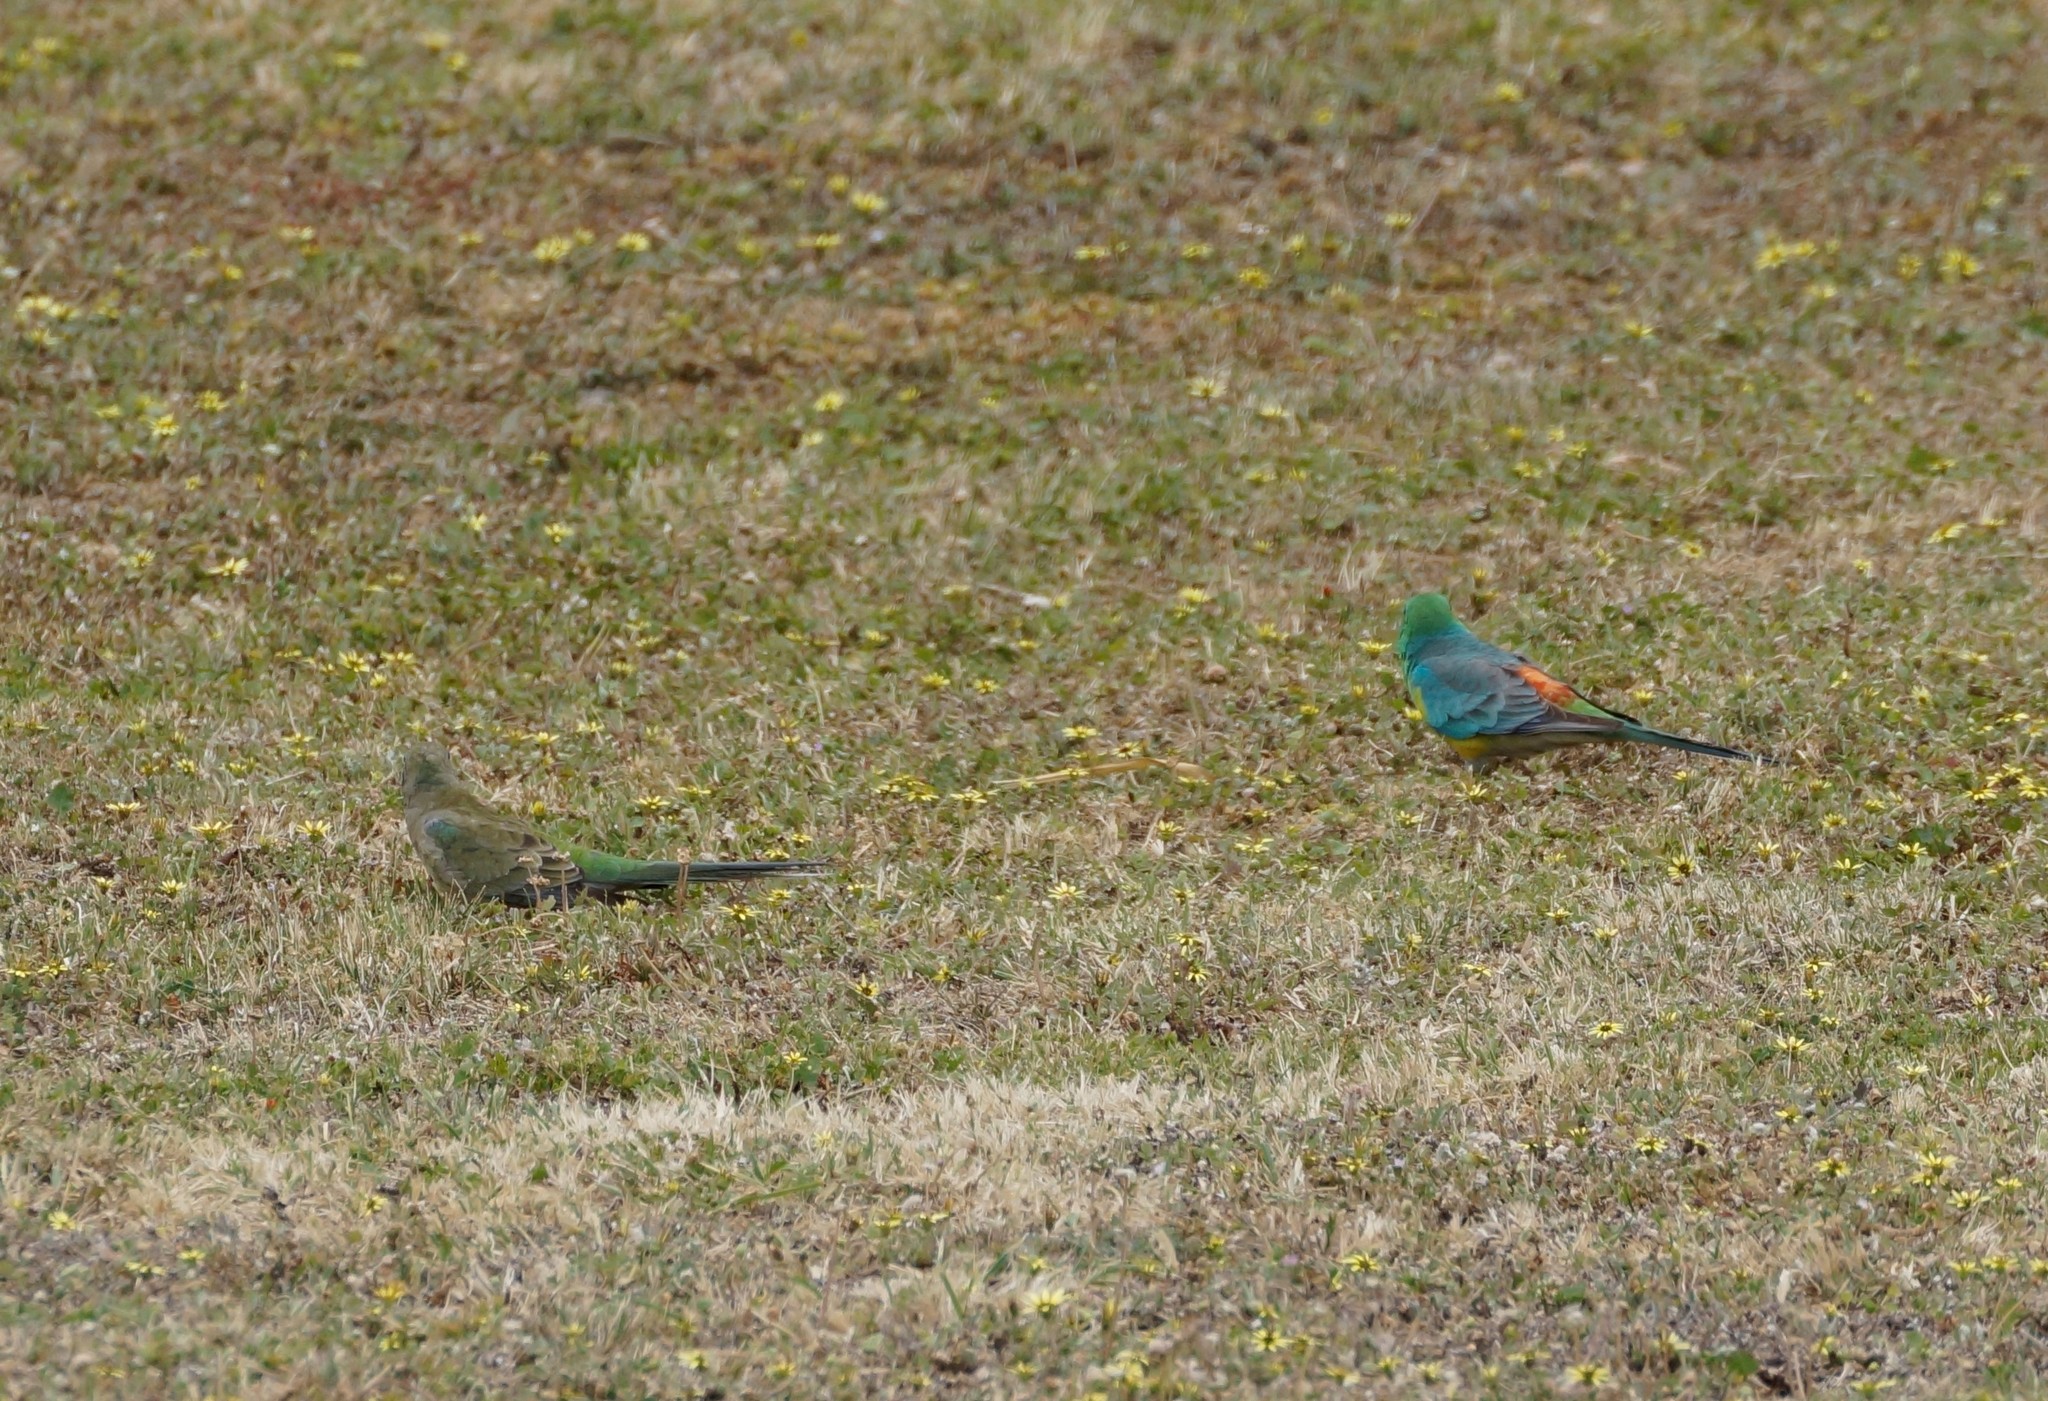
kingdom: Animalia
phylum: Chordata
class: Aves
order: Psittaciformes
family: Psittacidae
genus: Psephotus
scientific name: Psephotus haematonotus
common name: Red-rumped parrot
